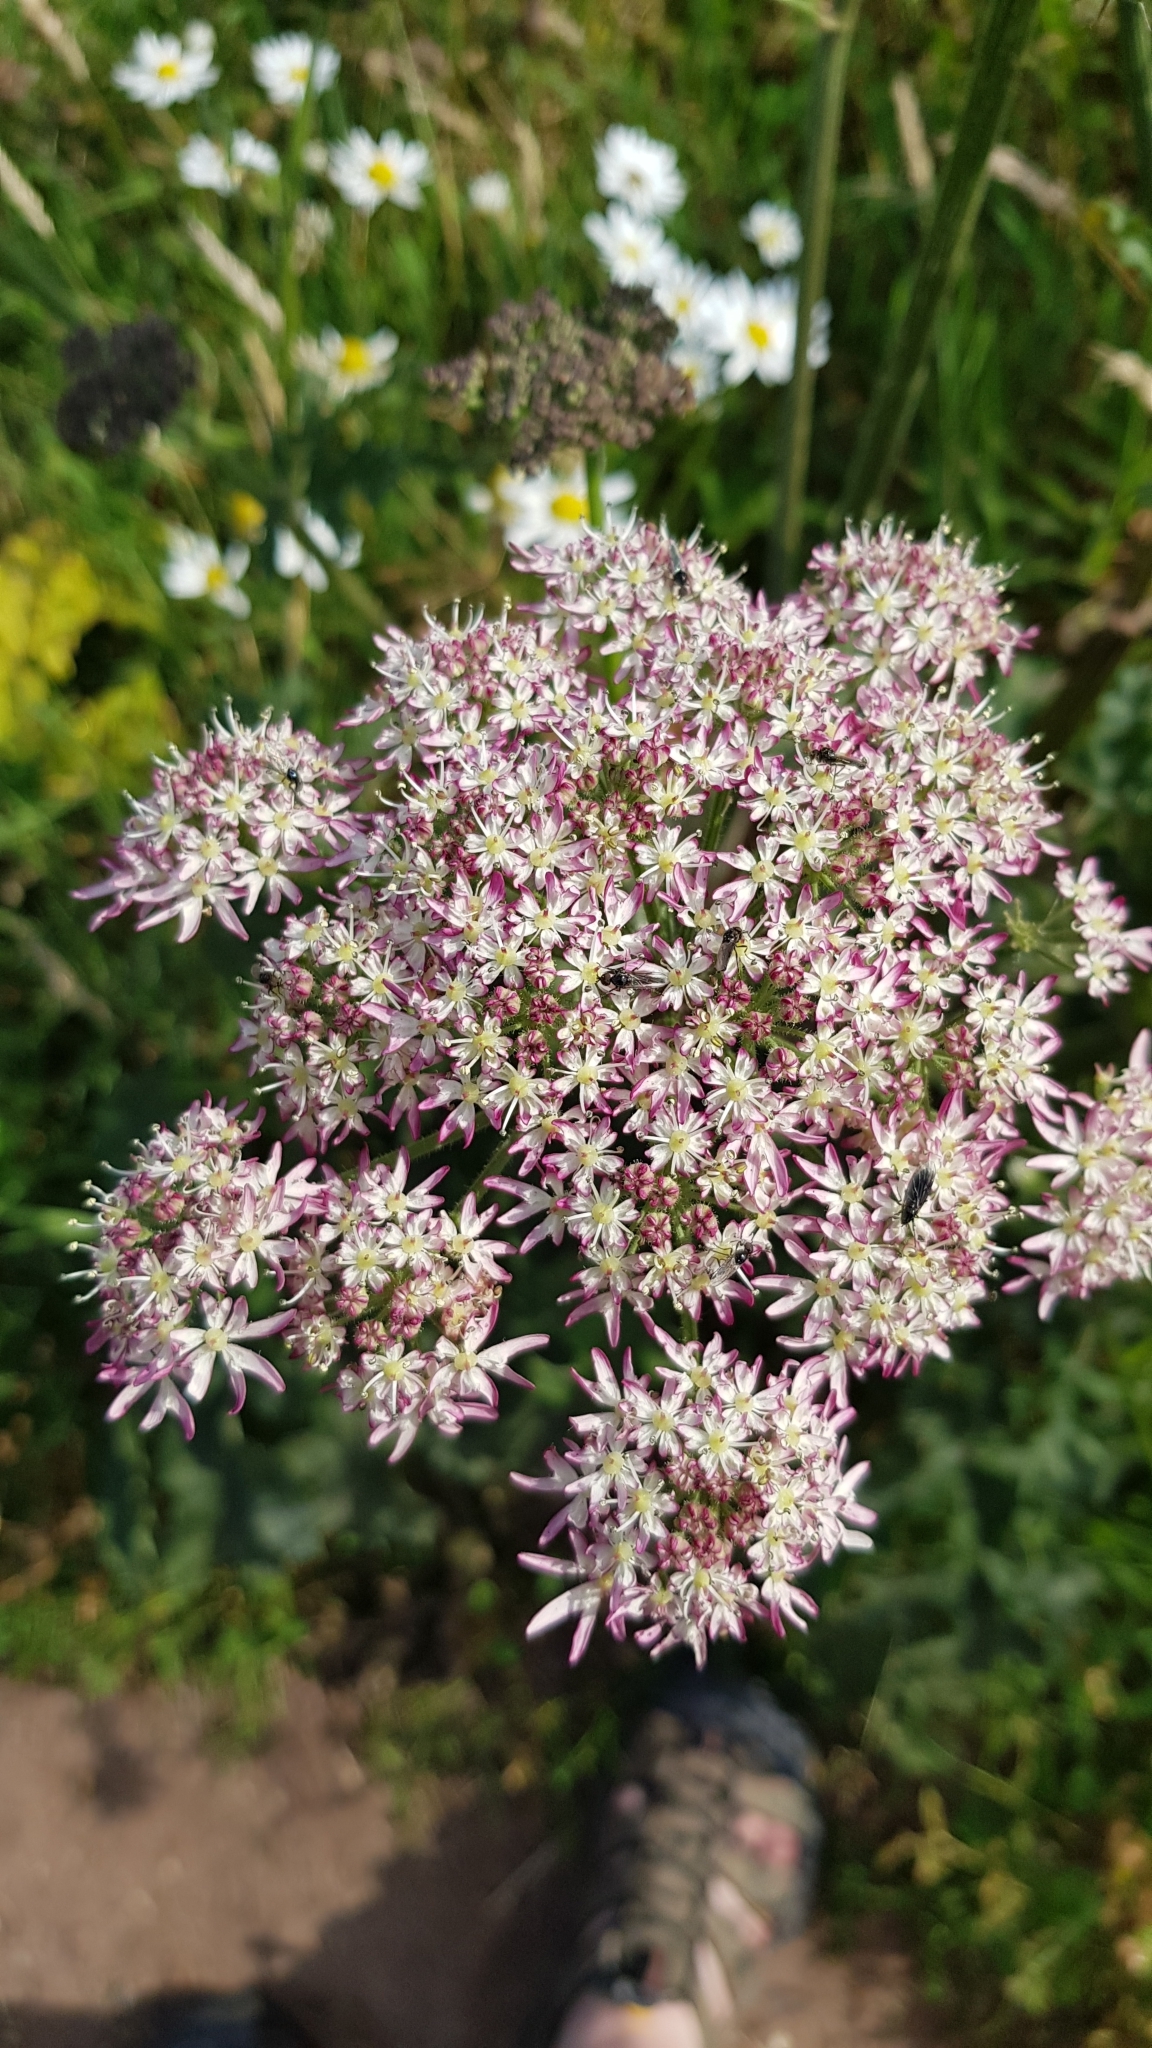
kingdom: Plantae
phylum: Tracheophyta
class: Magnoliopsida
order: Apiales
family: Apiaceae
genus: Heracleum
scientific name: Heracleum sphondylium
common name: Hogweed
